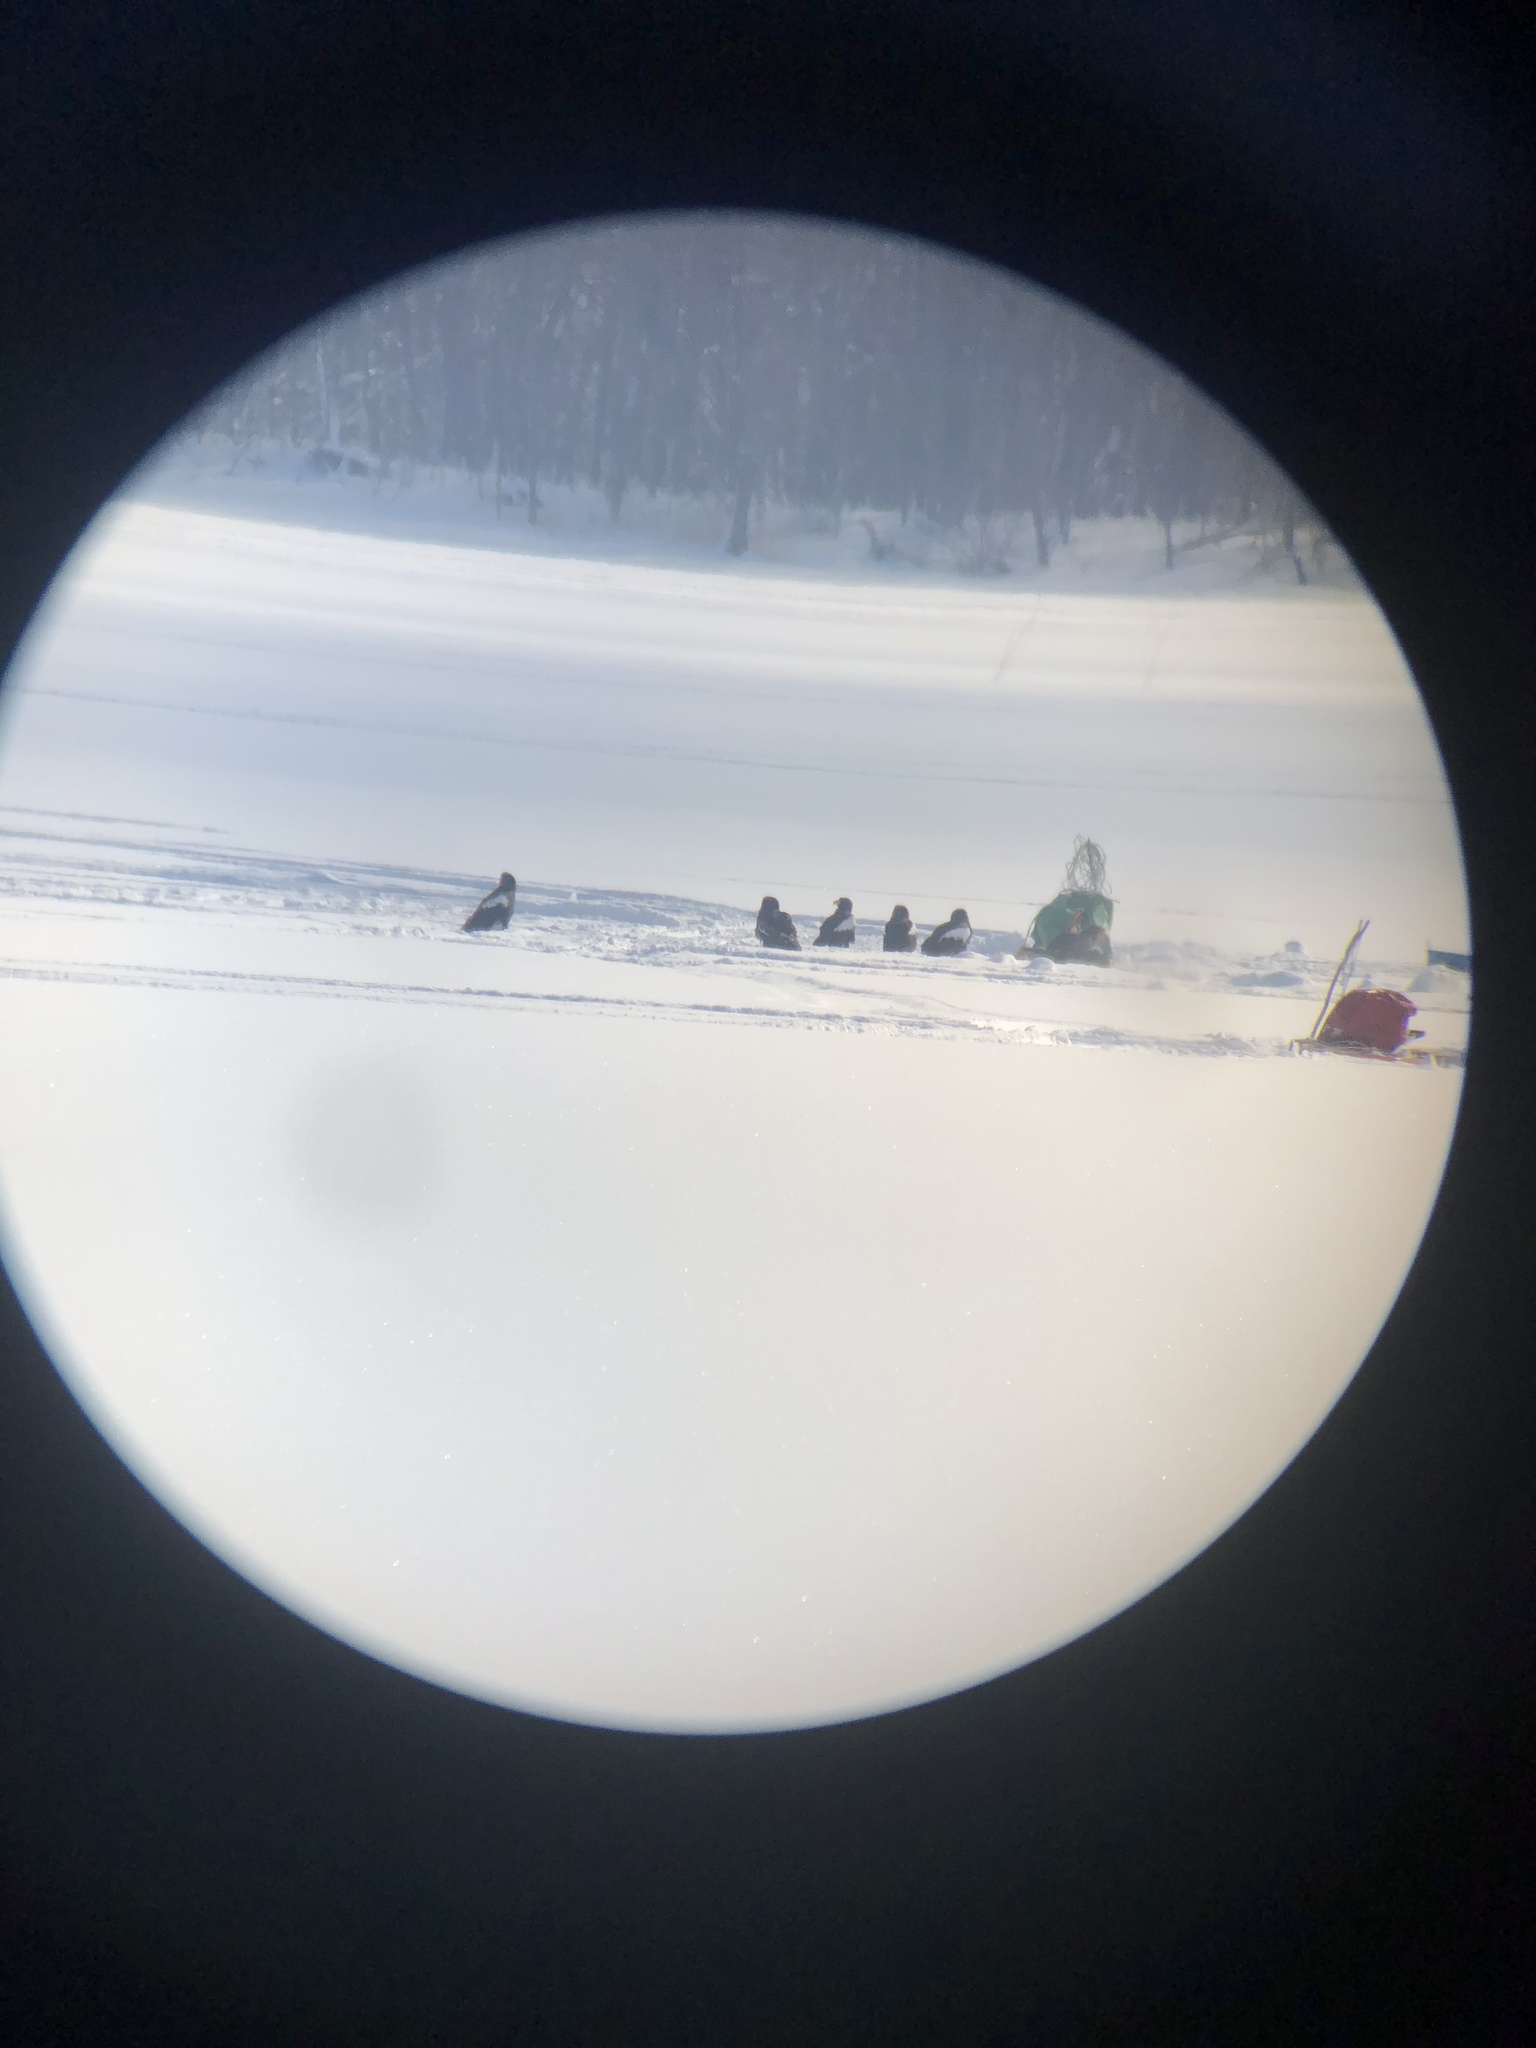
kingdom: Animalia
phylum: Chordata
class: Aves
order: Accipitriformes
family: Accipitridae
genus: Haliaeetus
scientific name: Haliaeetus pelagicus
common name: Steller's sea eagle
